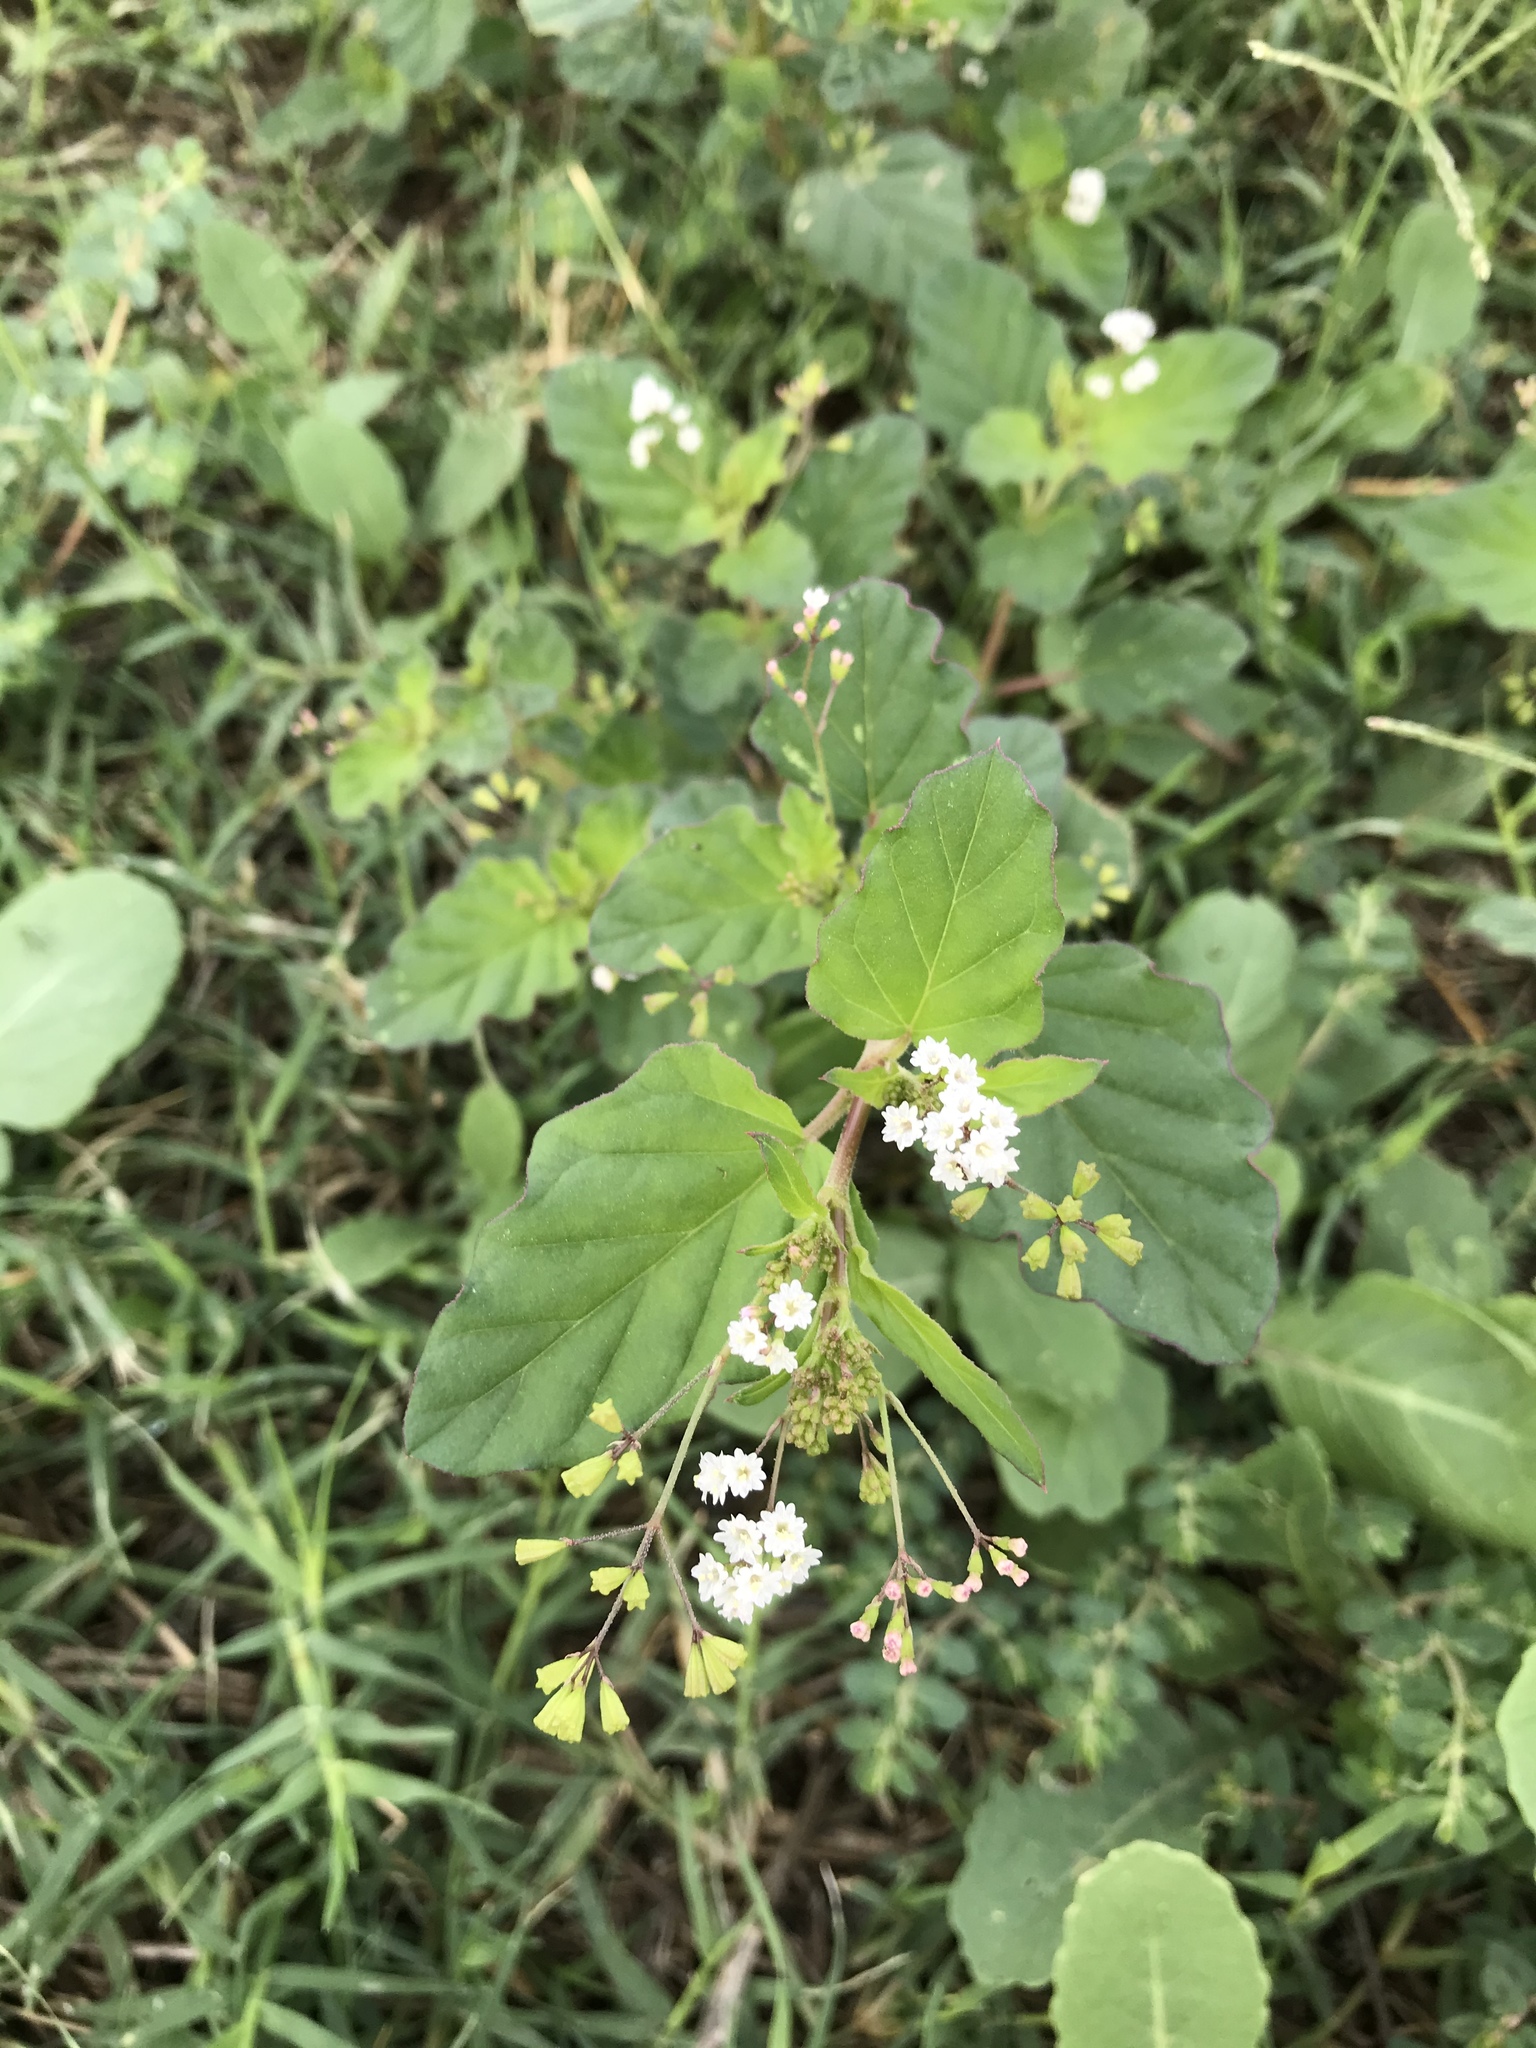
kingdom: Plantae
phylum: Tracheophyta
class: Magnoliopsida
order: Caryophyllales
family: Nyctaginaceae
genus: Boerhavia
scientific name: Boerhavia erecta
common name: Erect spiderling
